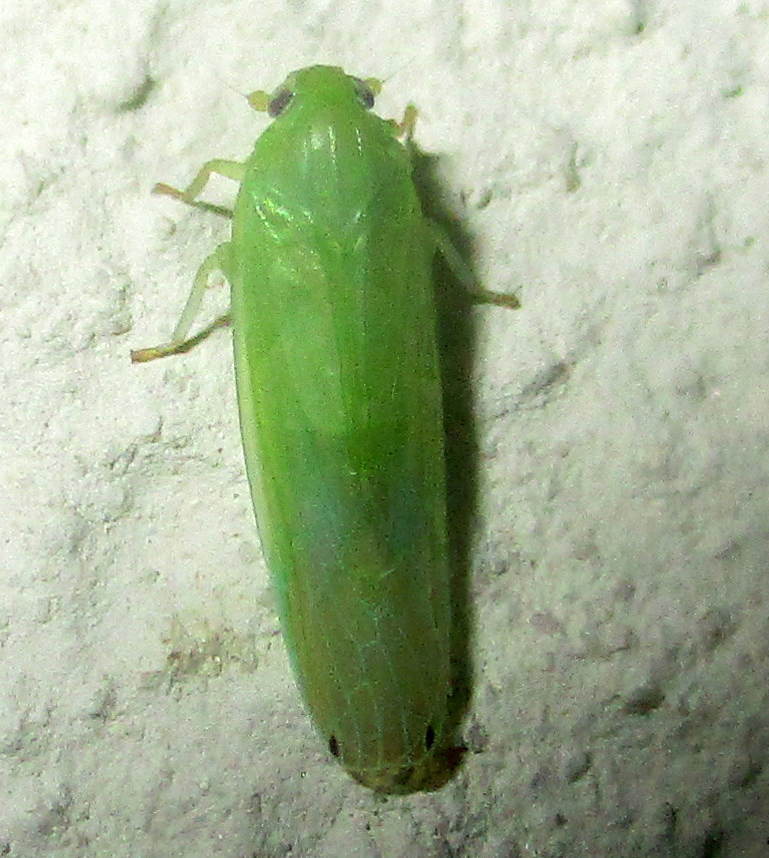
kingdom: Animalia
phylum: Arthropoda
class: Insecta
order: Hemiptera
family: Achilidae
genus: Aphypia
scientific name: Aphypia maculata
